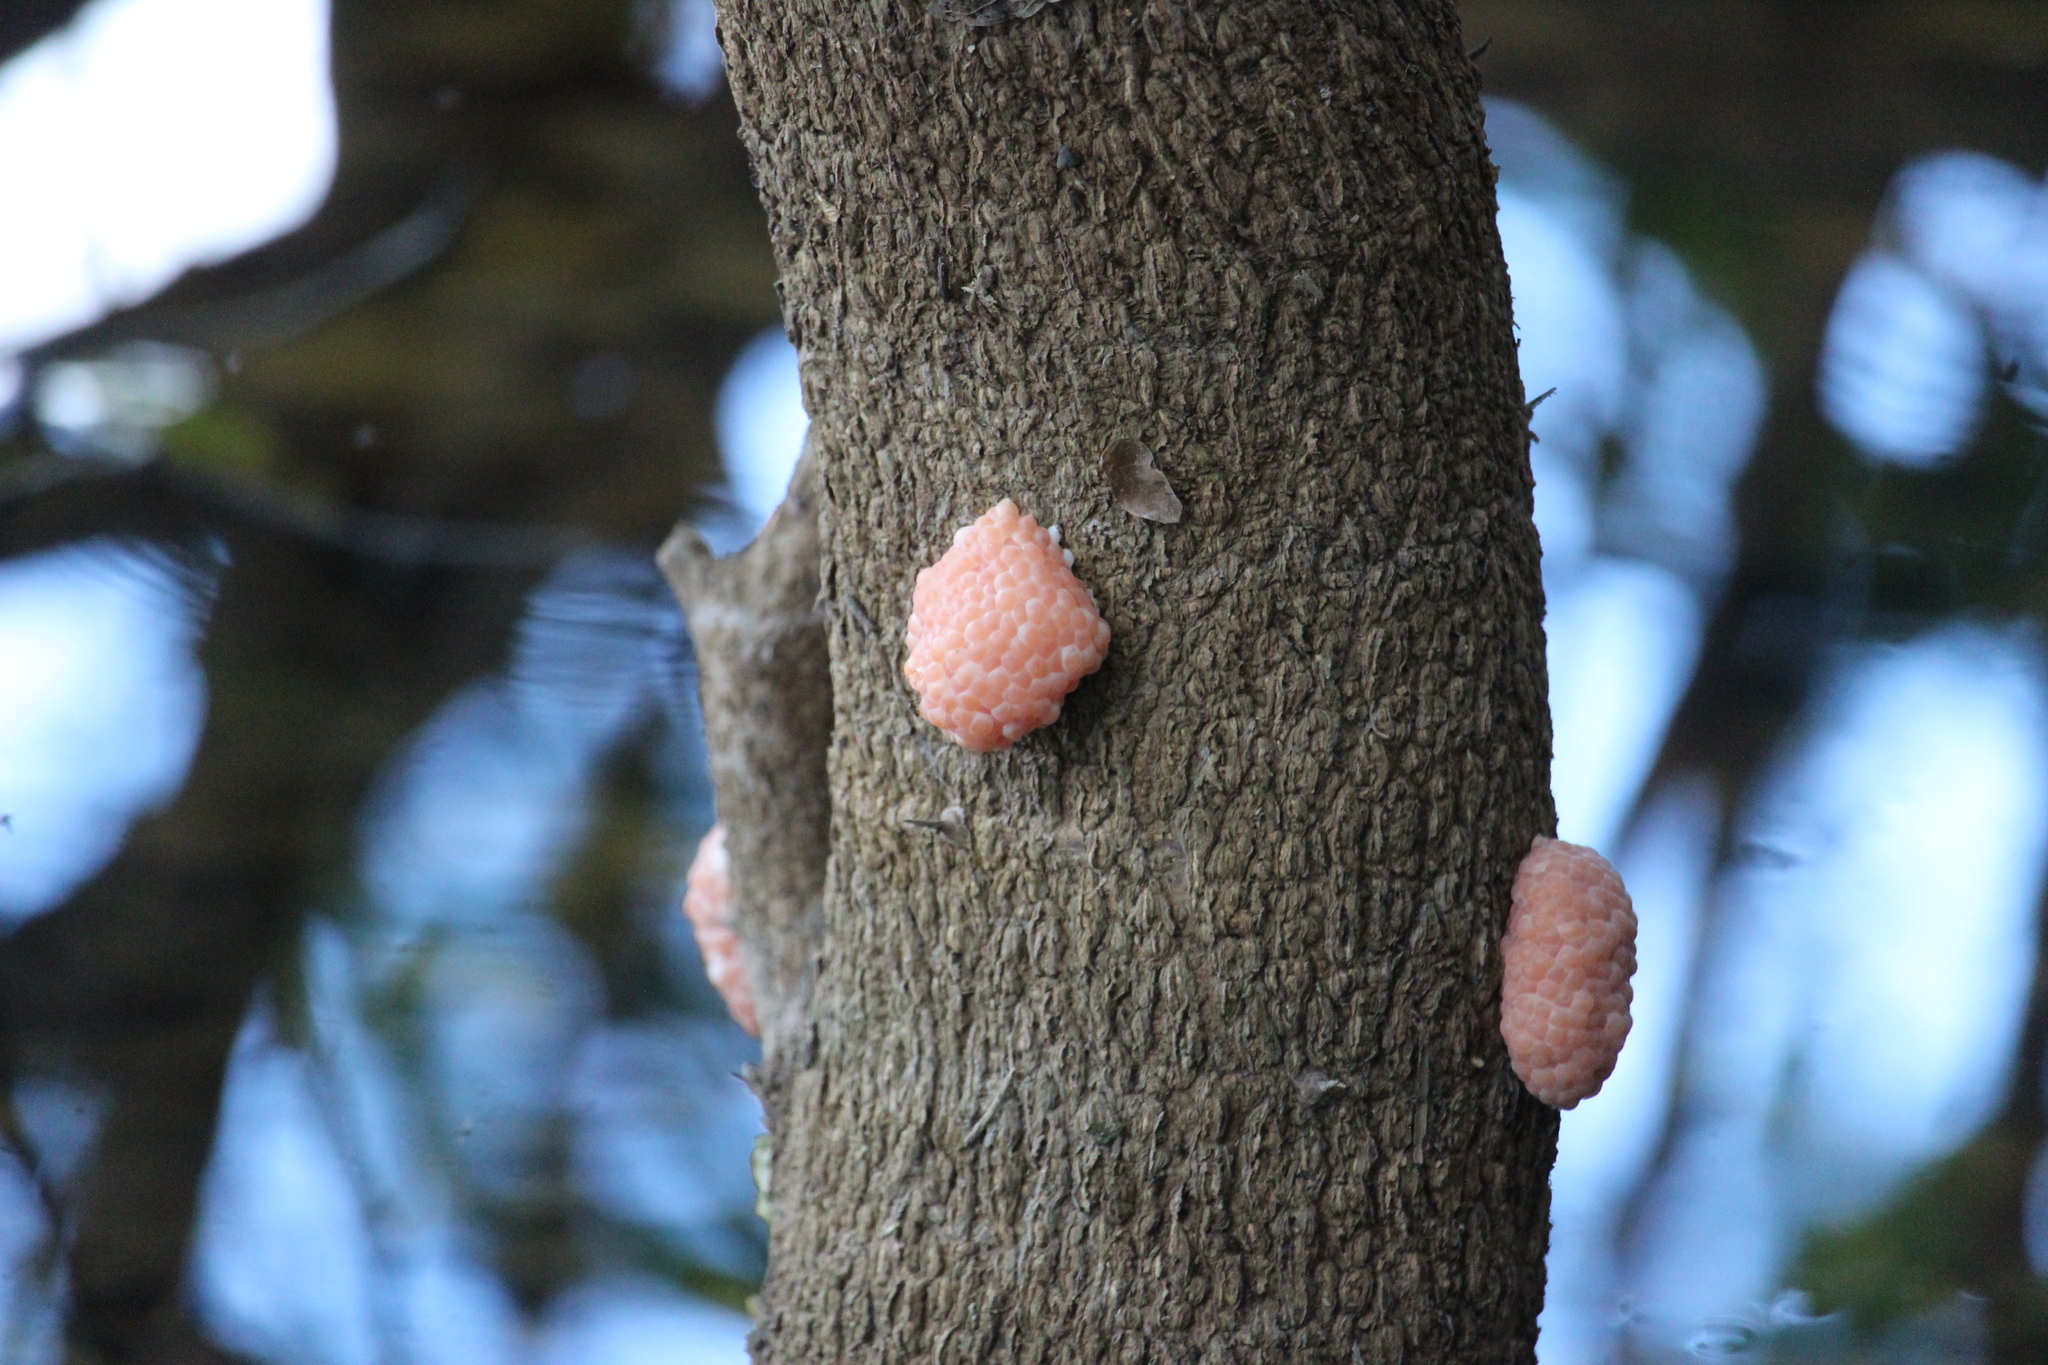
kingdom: Animalia
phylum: Mollusca
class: Gastropoda
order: Architaenioglossa
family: Ampullariidae
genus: Pomacea
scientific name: Pomacea canaliculata
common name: Channeled applesnail
